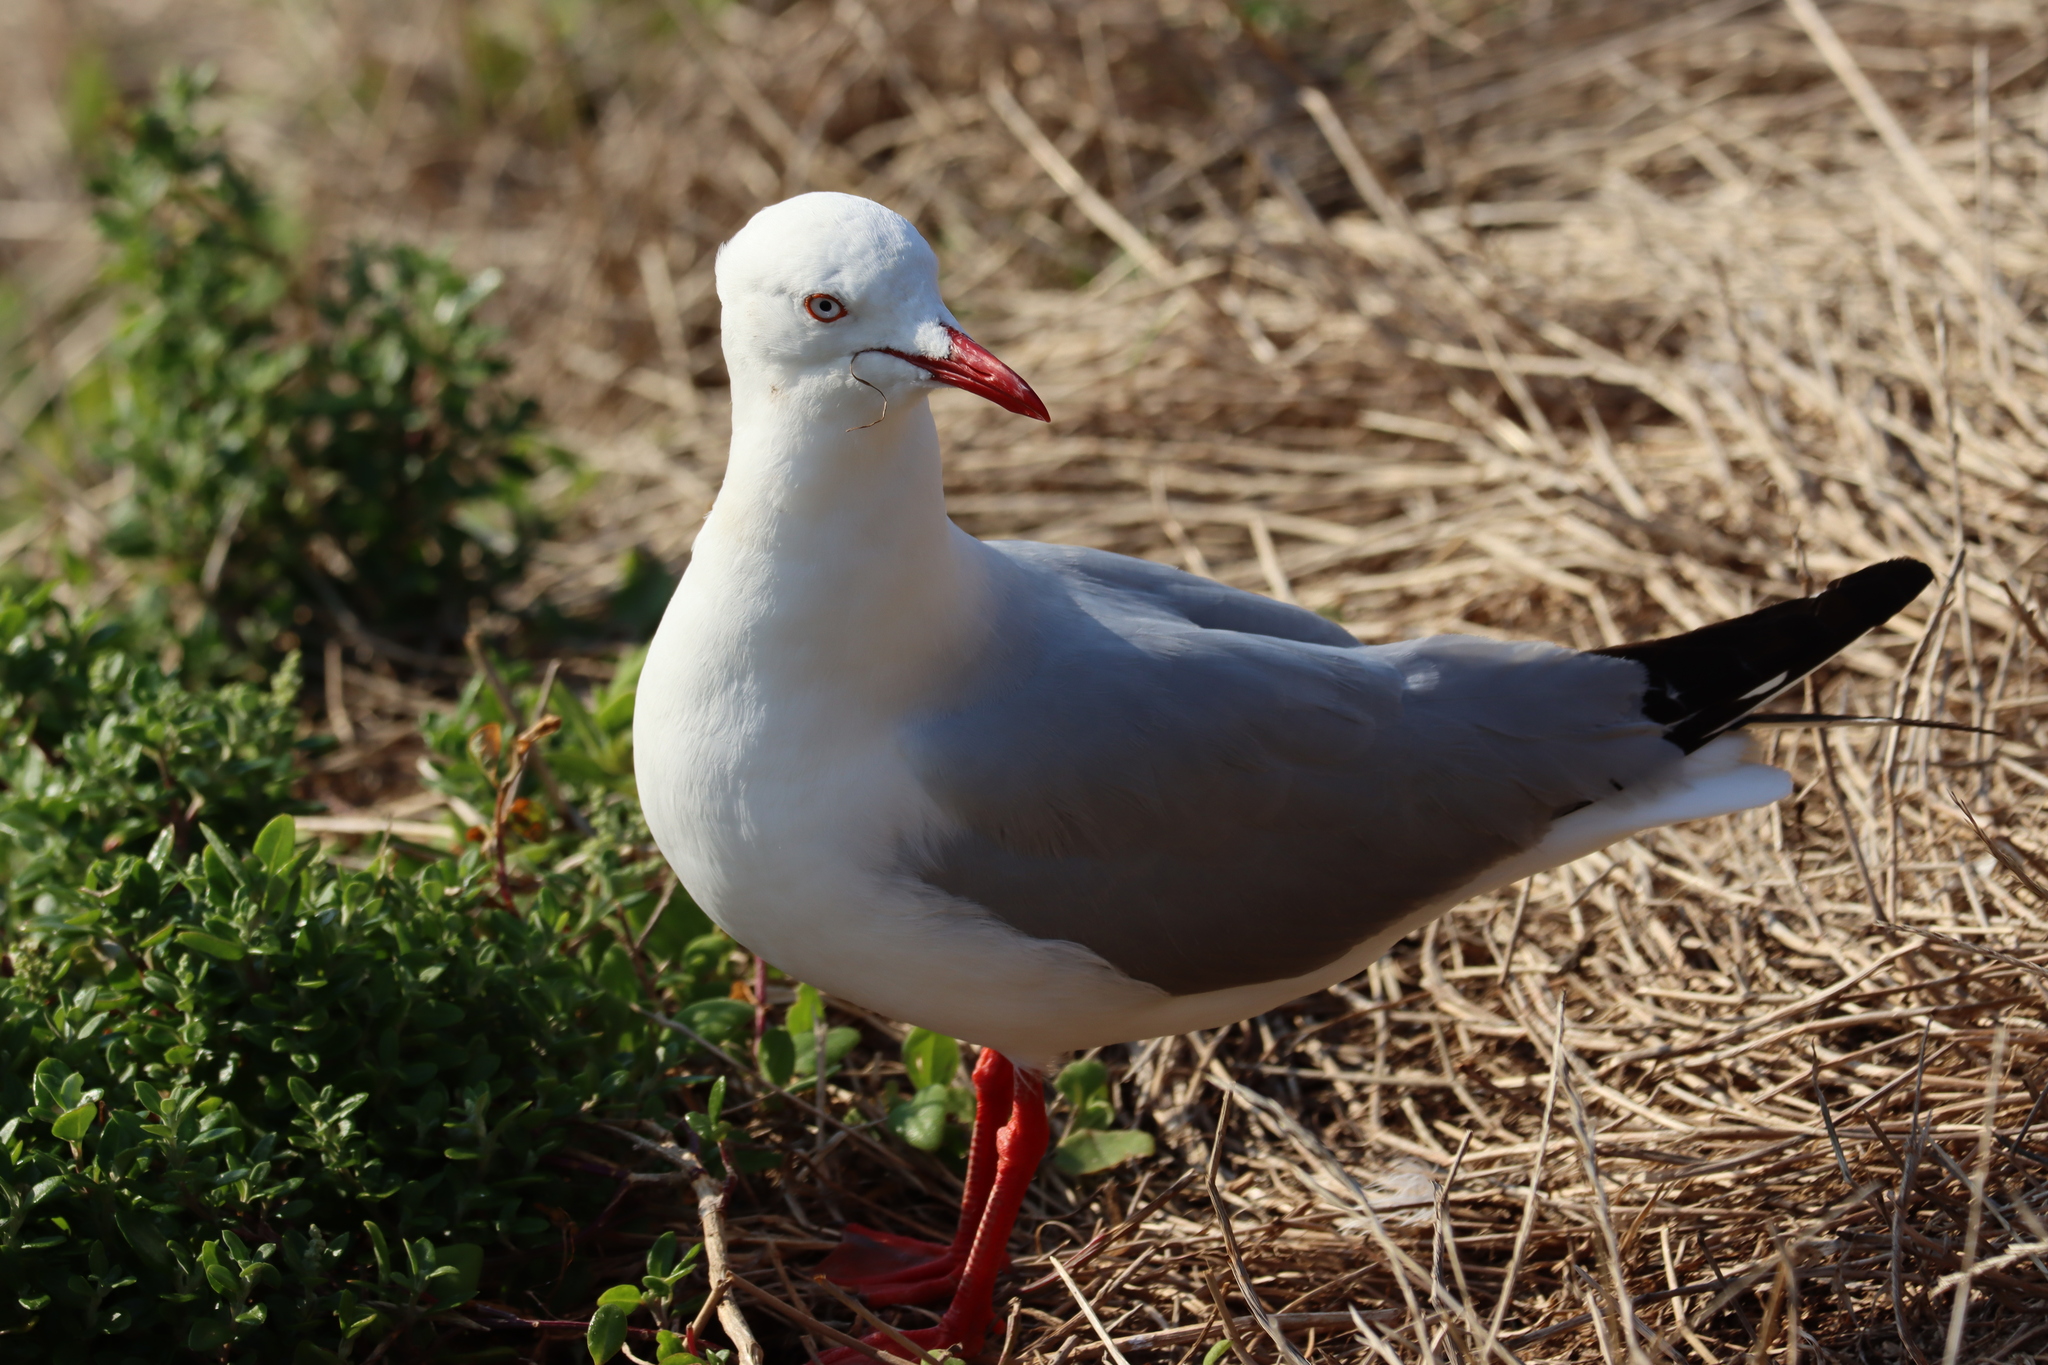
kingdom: Animalia
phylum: Chordata
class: Aves
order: Charadriiformes
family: Laridae
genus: Chroicocephalus
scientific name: Chroicocephalus novaehollandiae
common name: Silver gull
